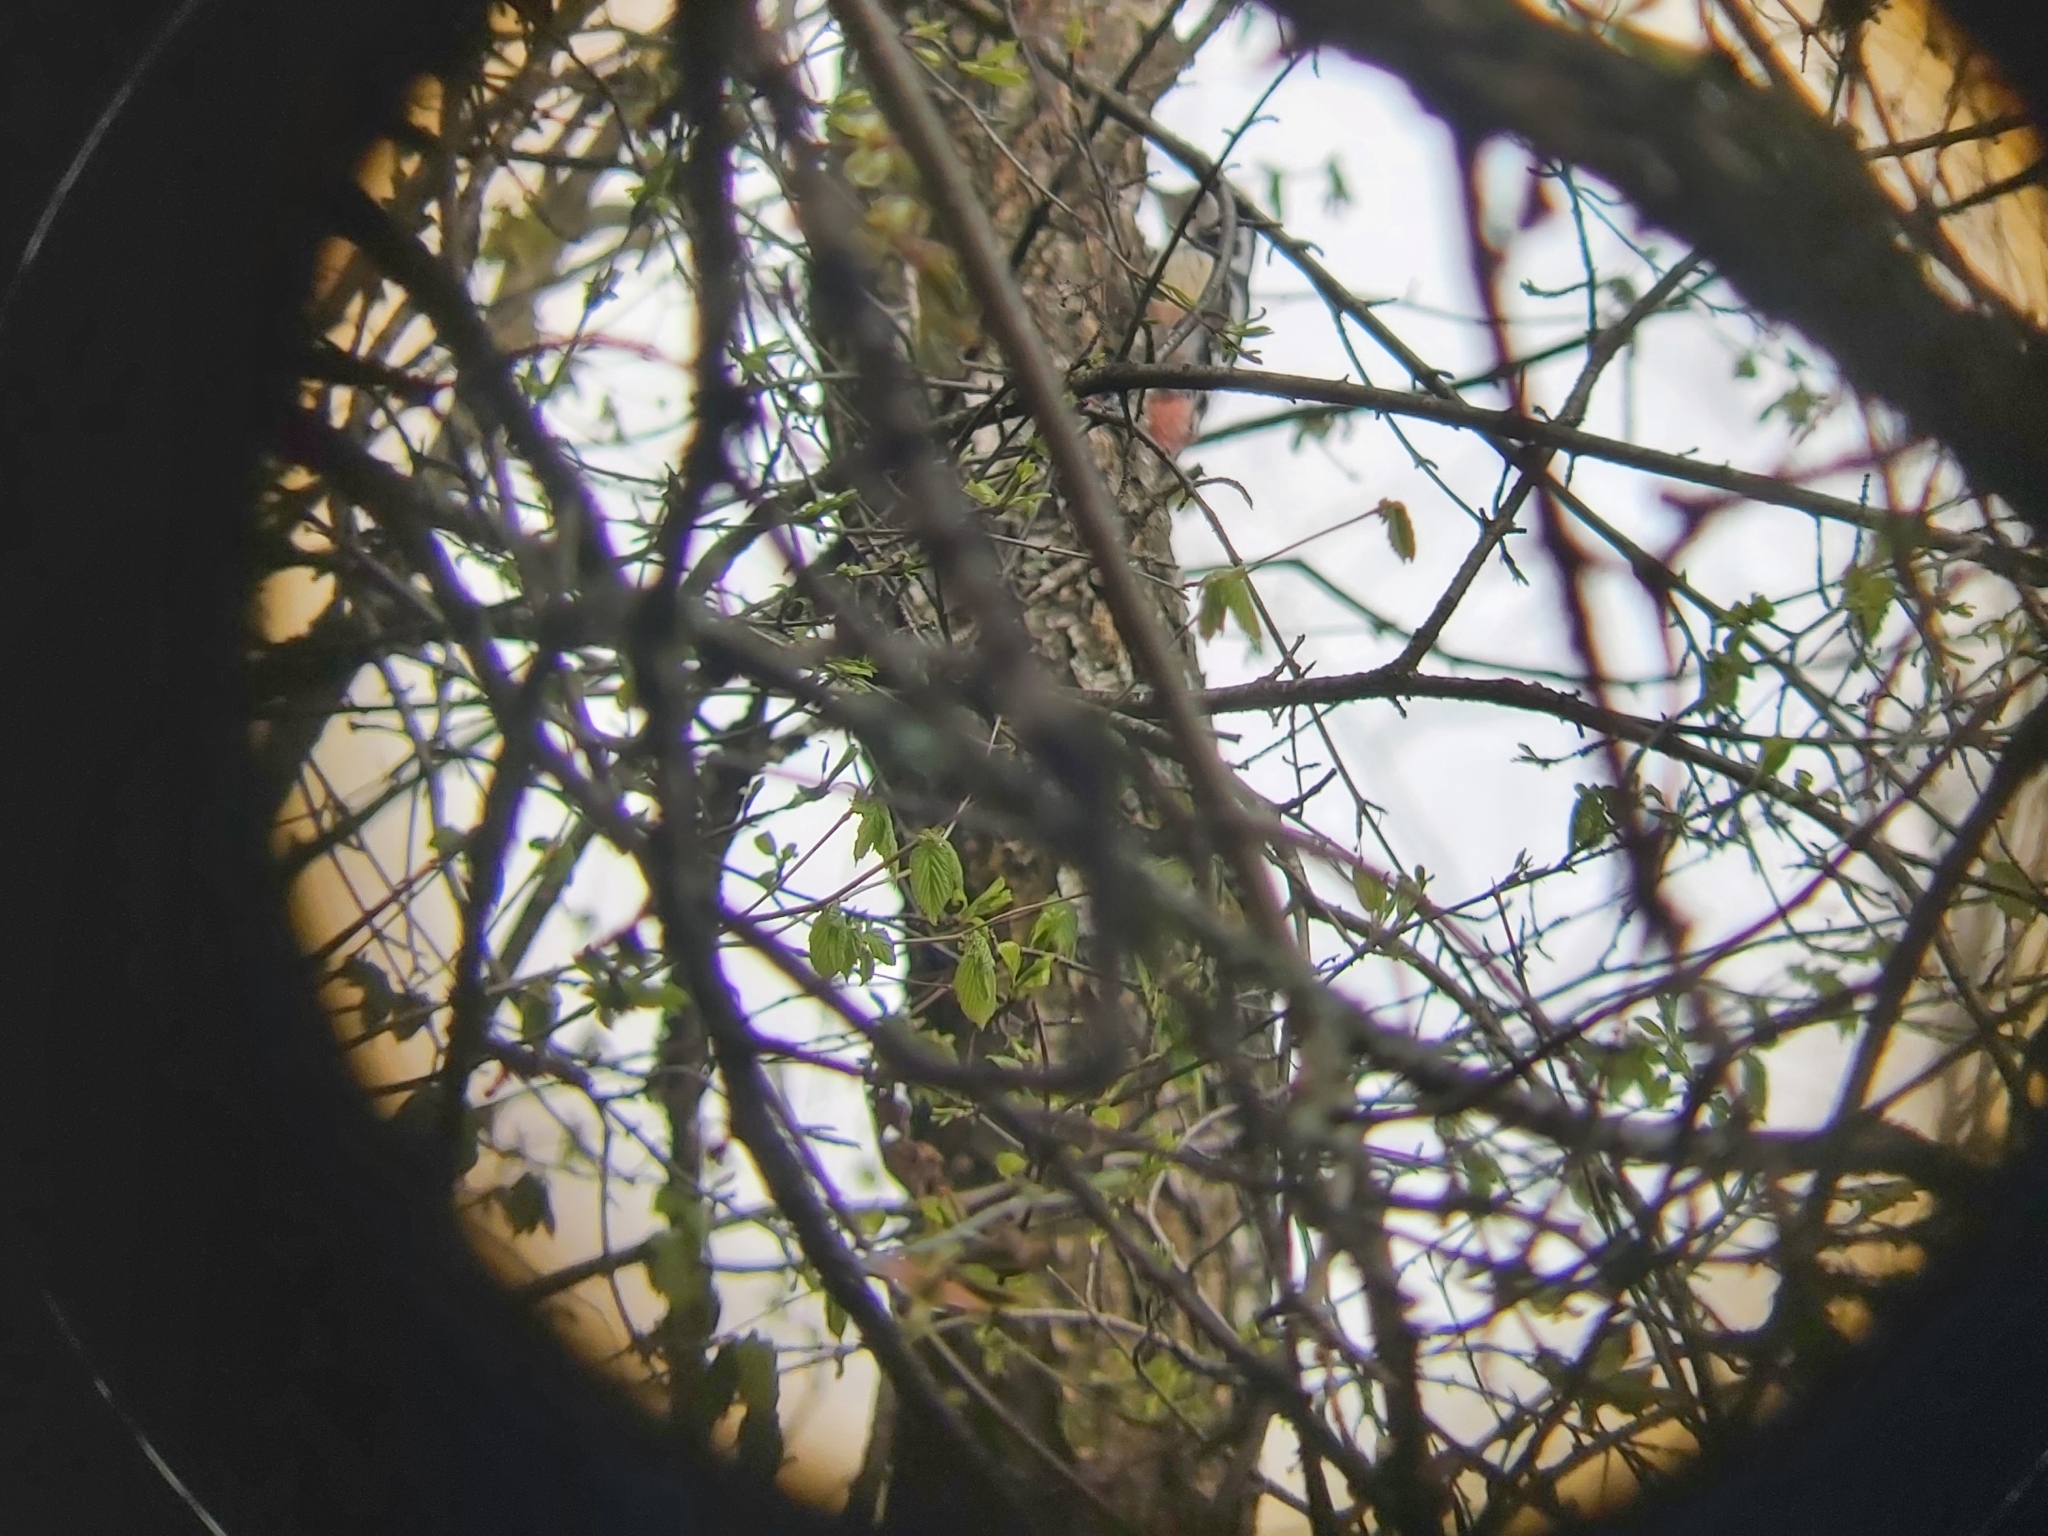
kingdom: Animalia
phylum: Chordata
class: Aves
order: Piciformes
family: Picidae
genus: Dendrocoptes
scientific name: Dendrocoptes medius
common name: Middle spotted woodpecker
